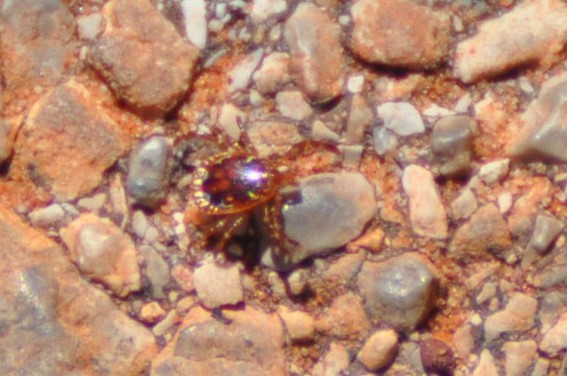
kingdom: Animalia
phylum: Arthropoda
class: Arachnida
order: Ixodida
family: Ixodidae
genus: Amblyomma
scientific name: Amblyomma americanum
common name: Lone star tick
